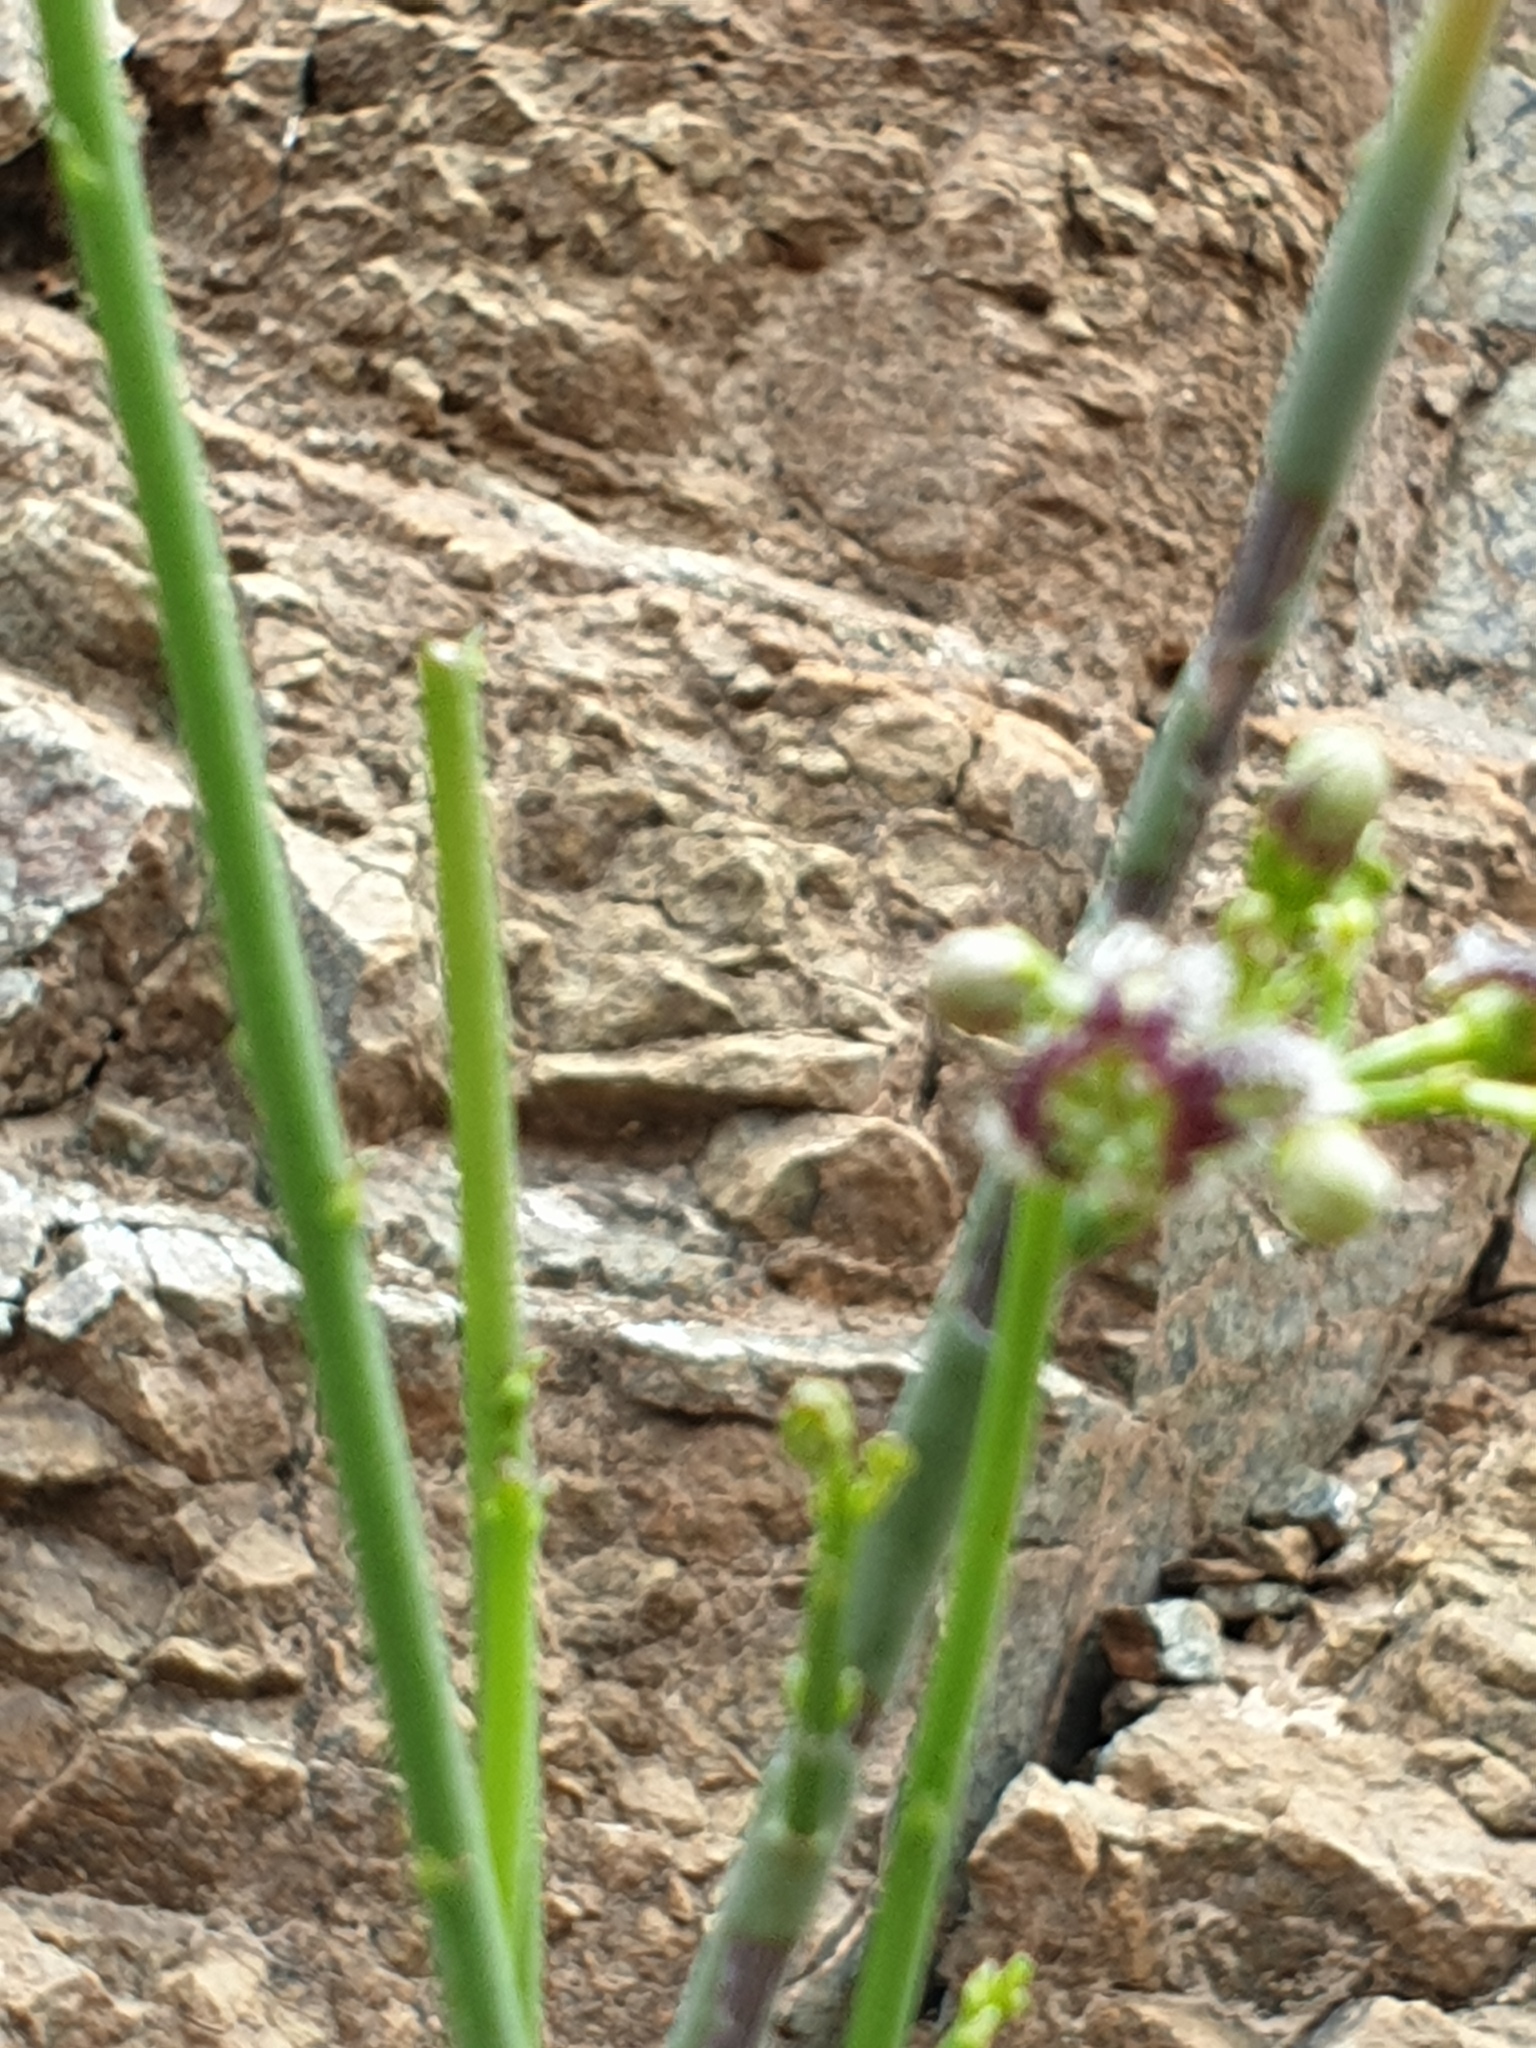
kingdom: Plantae
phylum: Tracheophyta
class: Magnoliopsida
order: Gentianales
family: Apocynaceae
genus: Periploca
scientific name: Periploca aphylla
